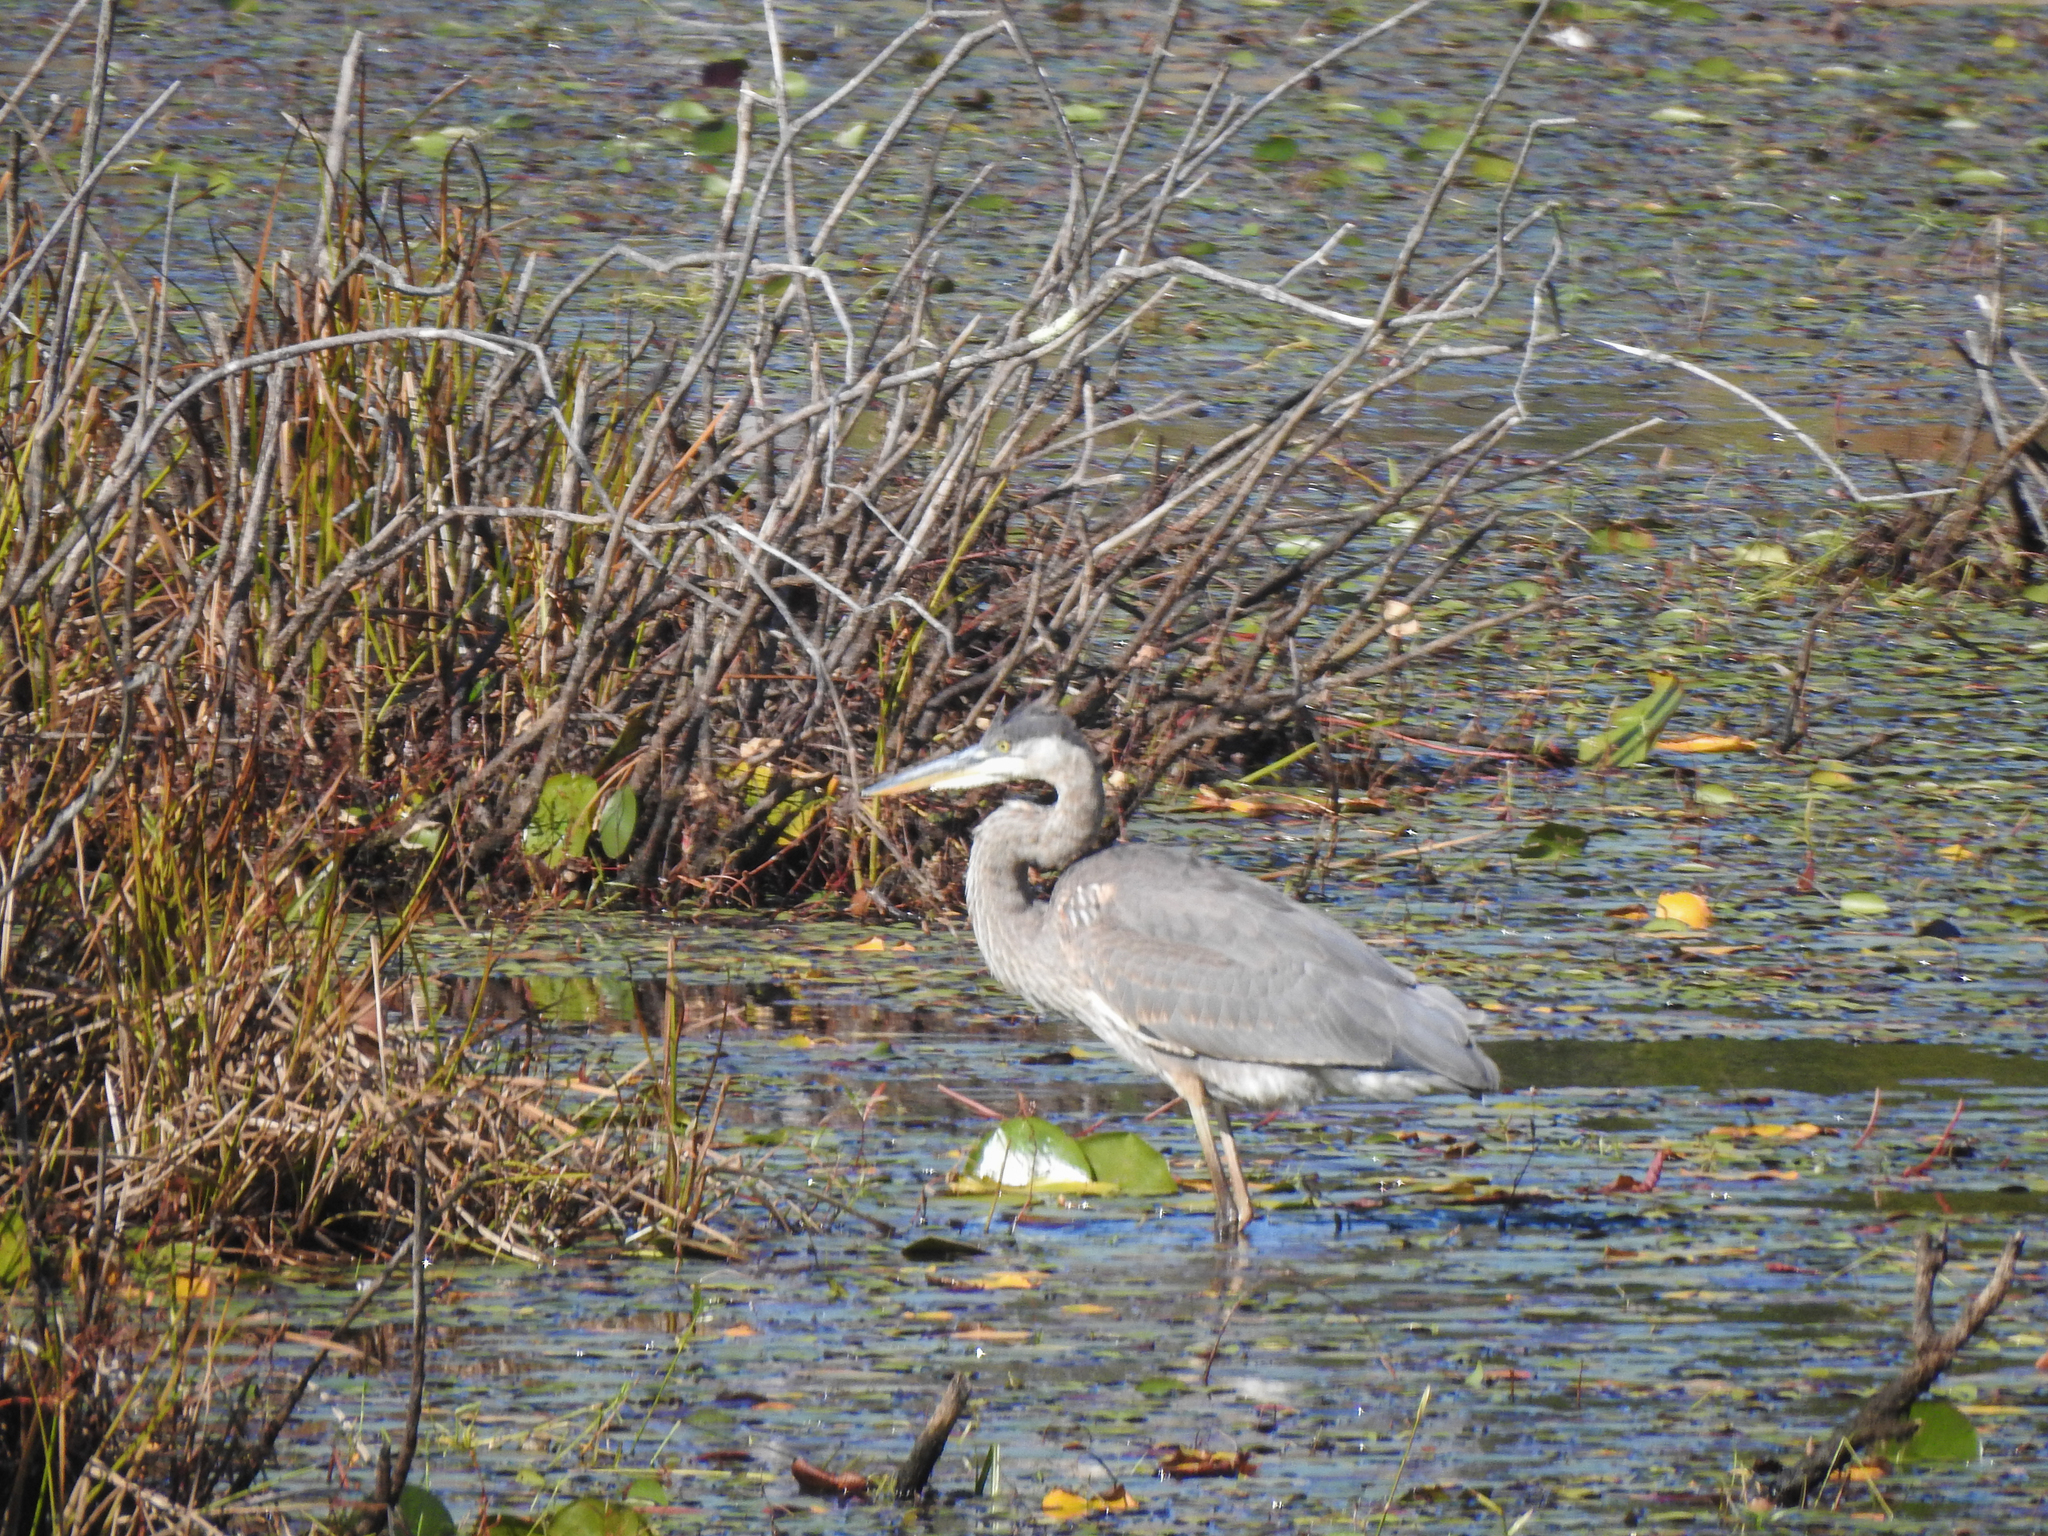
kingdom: Animalia
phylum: Chordata
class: Aves
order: Pelecaniformes
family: Ardeidae
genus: Ardea
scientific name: Ardea herodias
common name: Great blue heron
